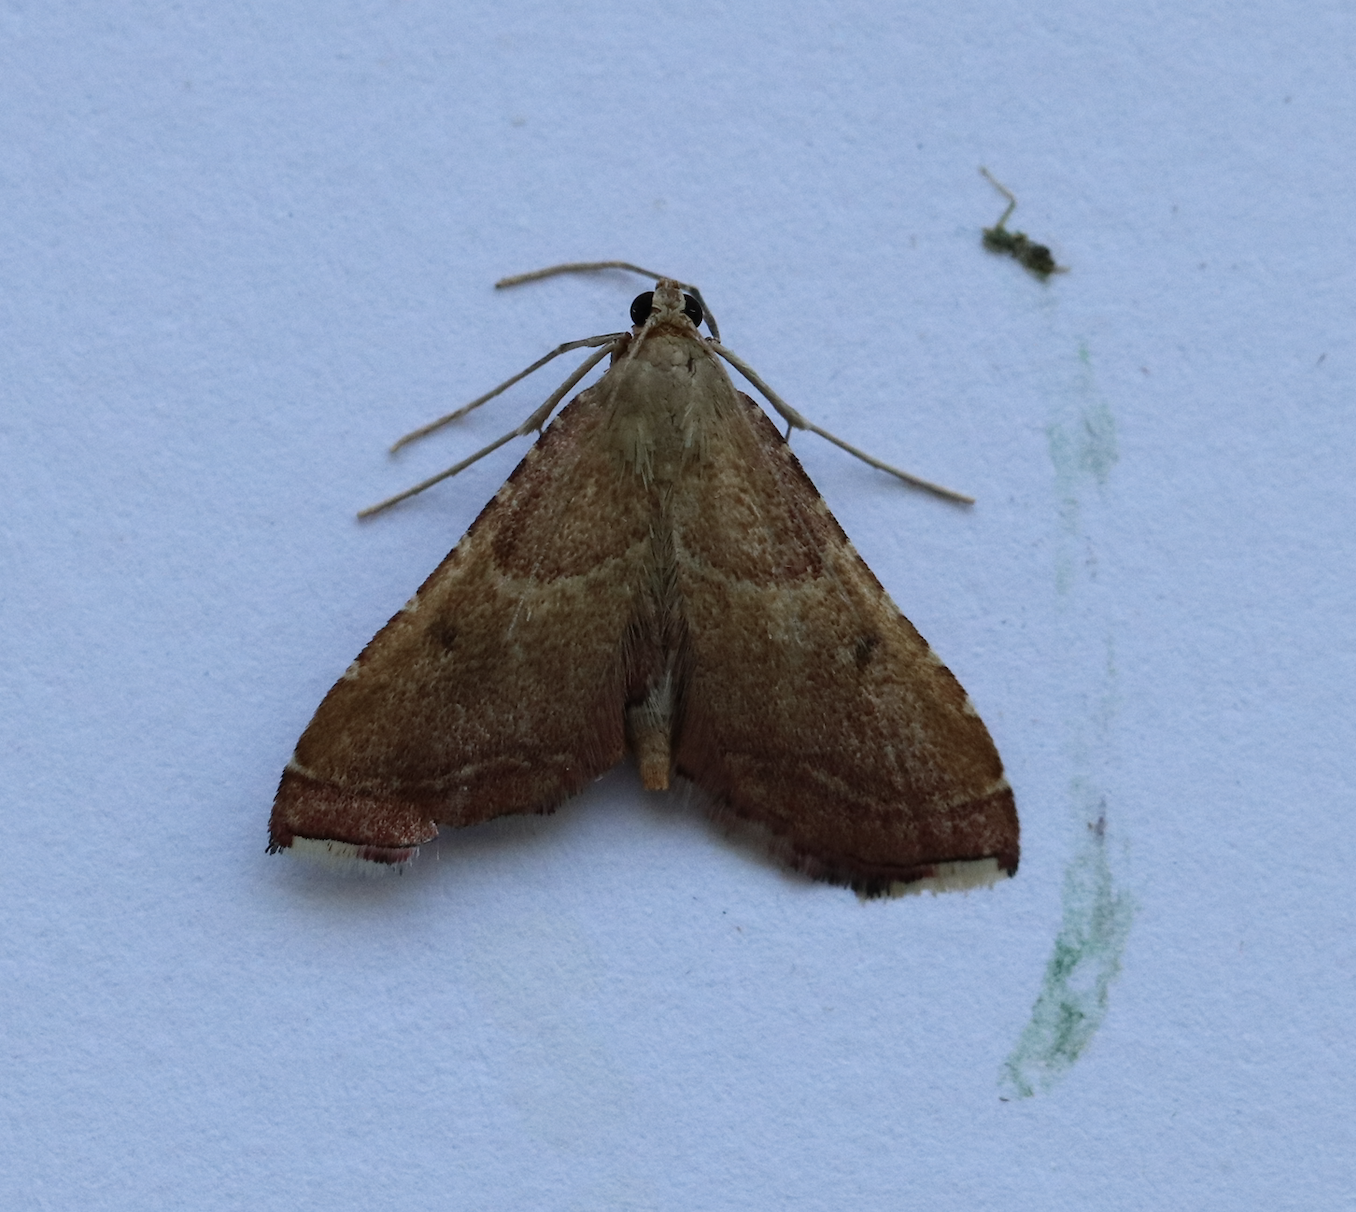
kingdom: Animalia
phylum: Arthropoda
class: Insecta
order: Lepidoptera
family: Pyralidae
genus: Endotricha
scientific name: Endotricha flammealis
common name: Rosy tabby
